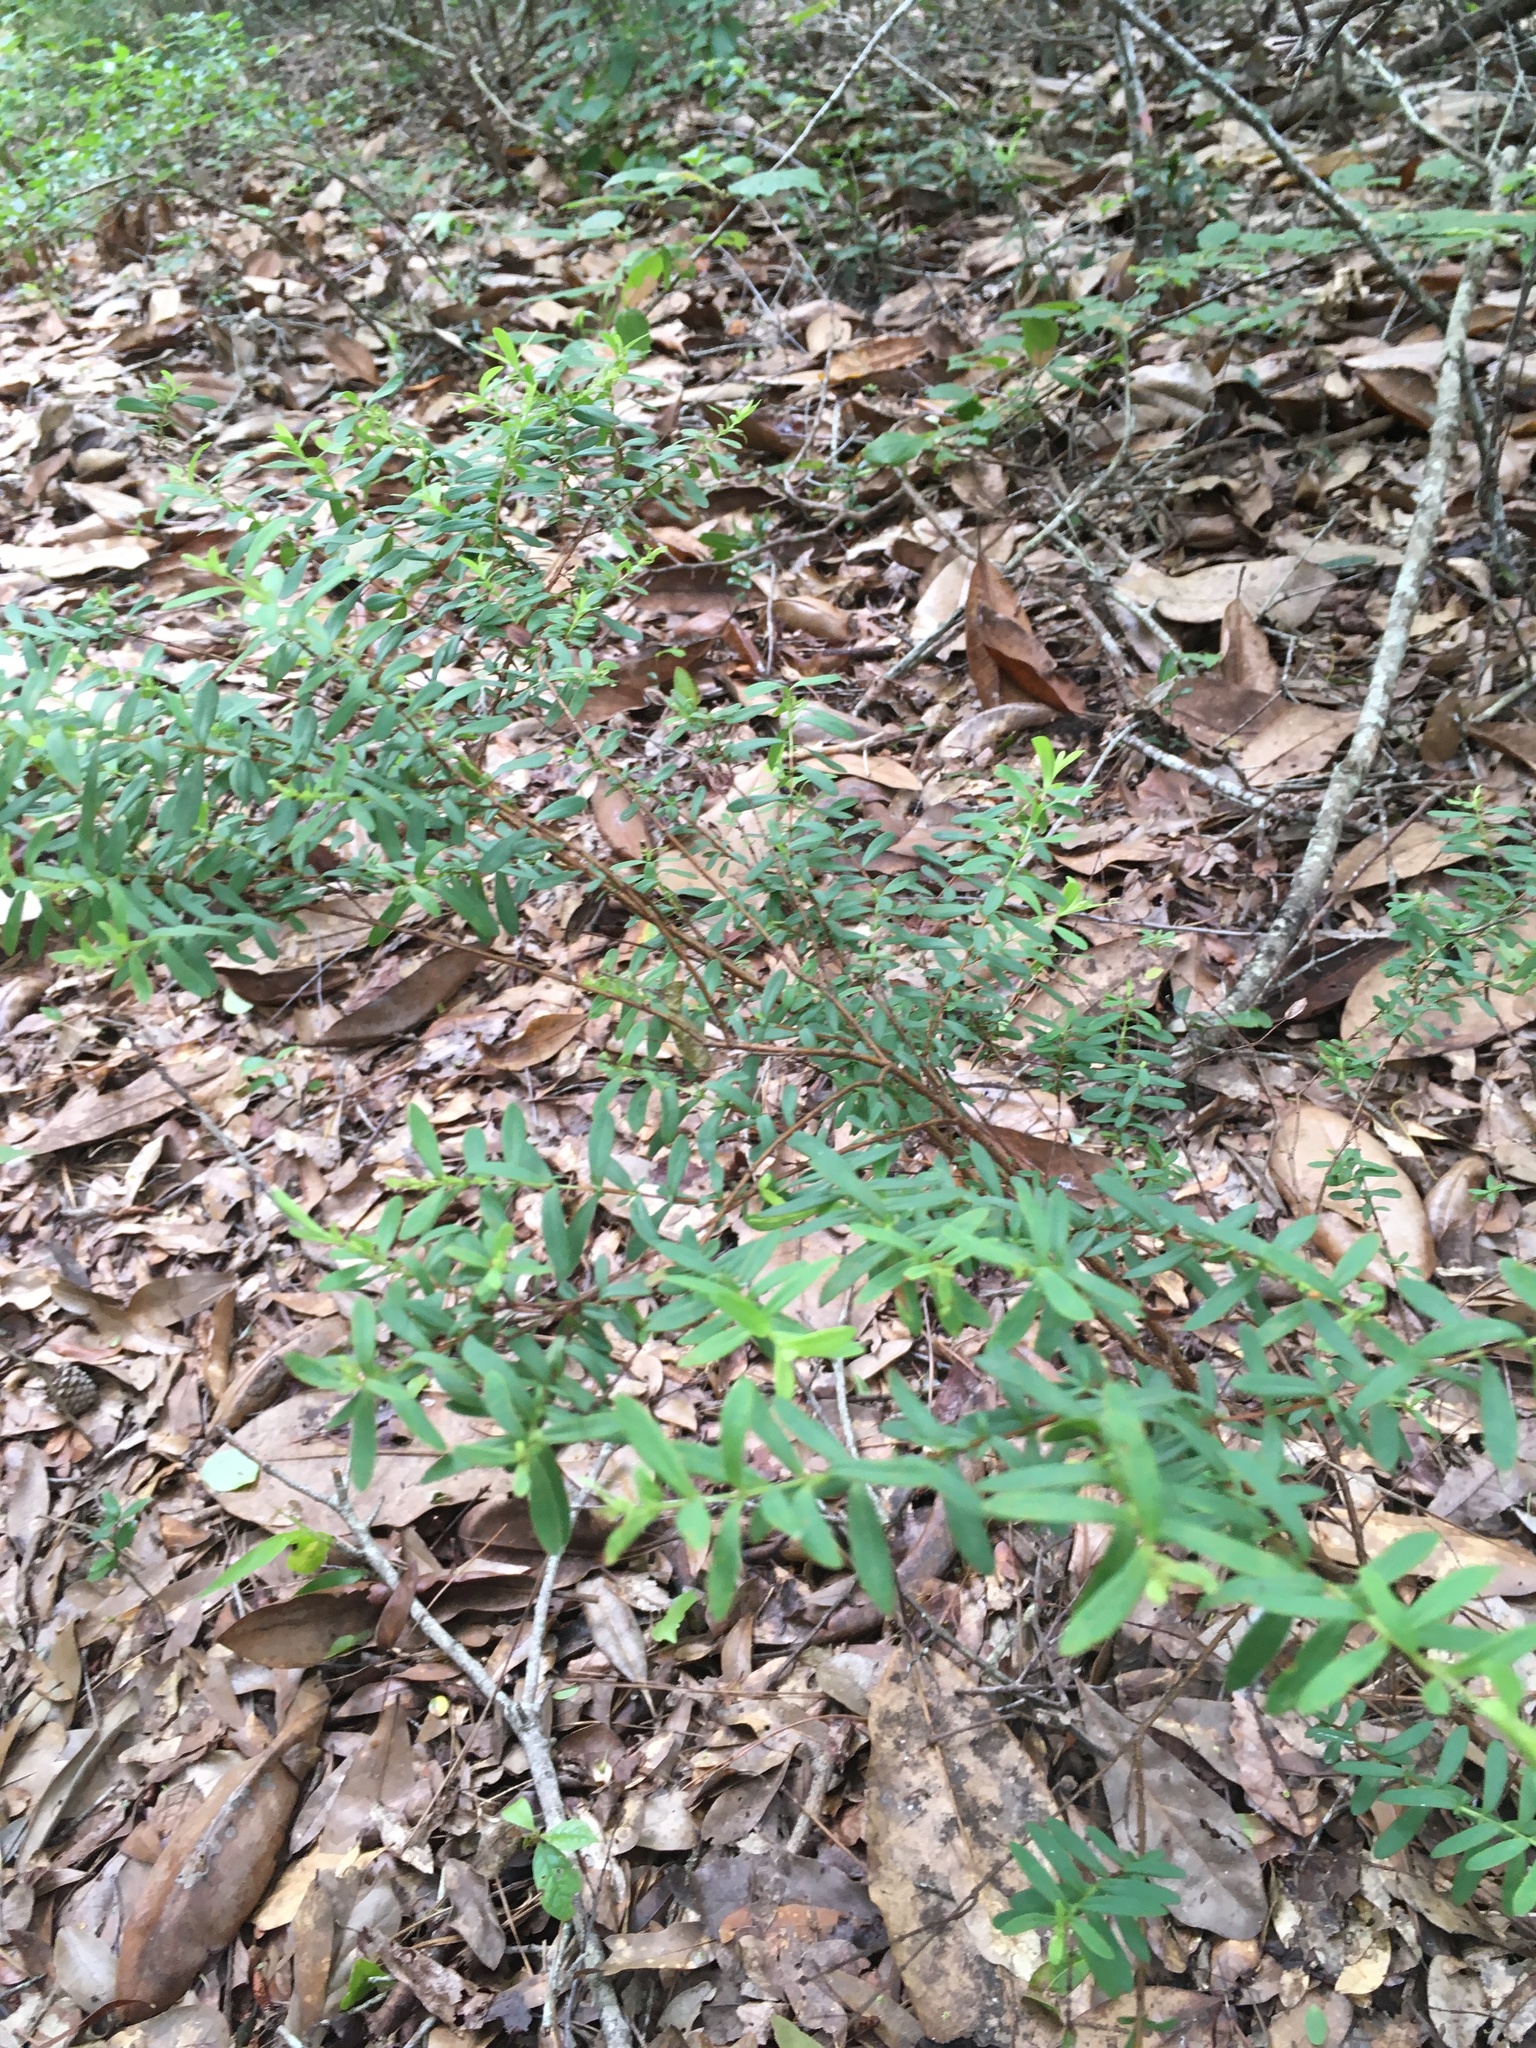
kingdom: Plantae
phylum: Tracheophyta
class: Magnoliopsida
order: Malpighiales
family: Hypericaceae
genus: Hypericum
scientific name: Hypericum hypericoides
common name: St. andrew's cross
